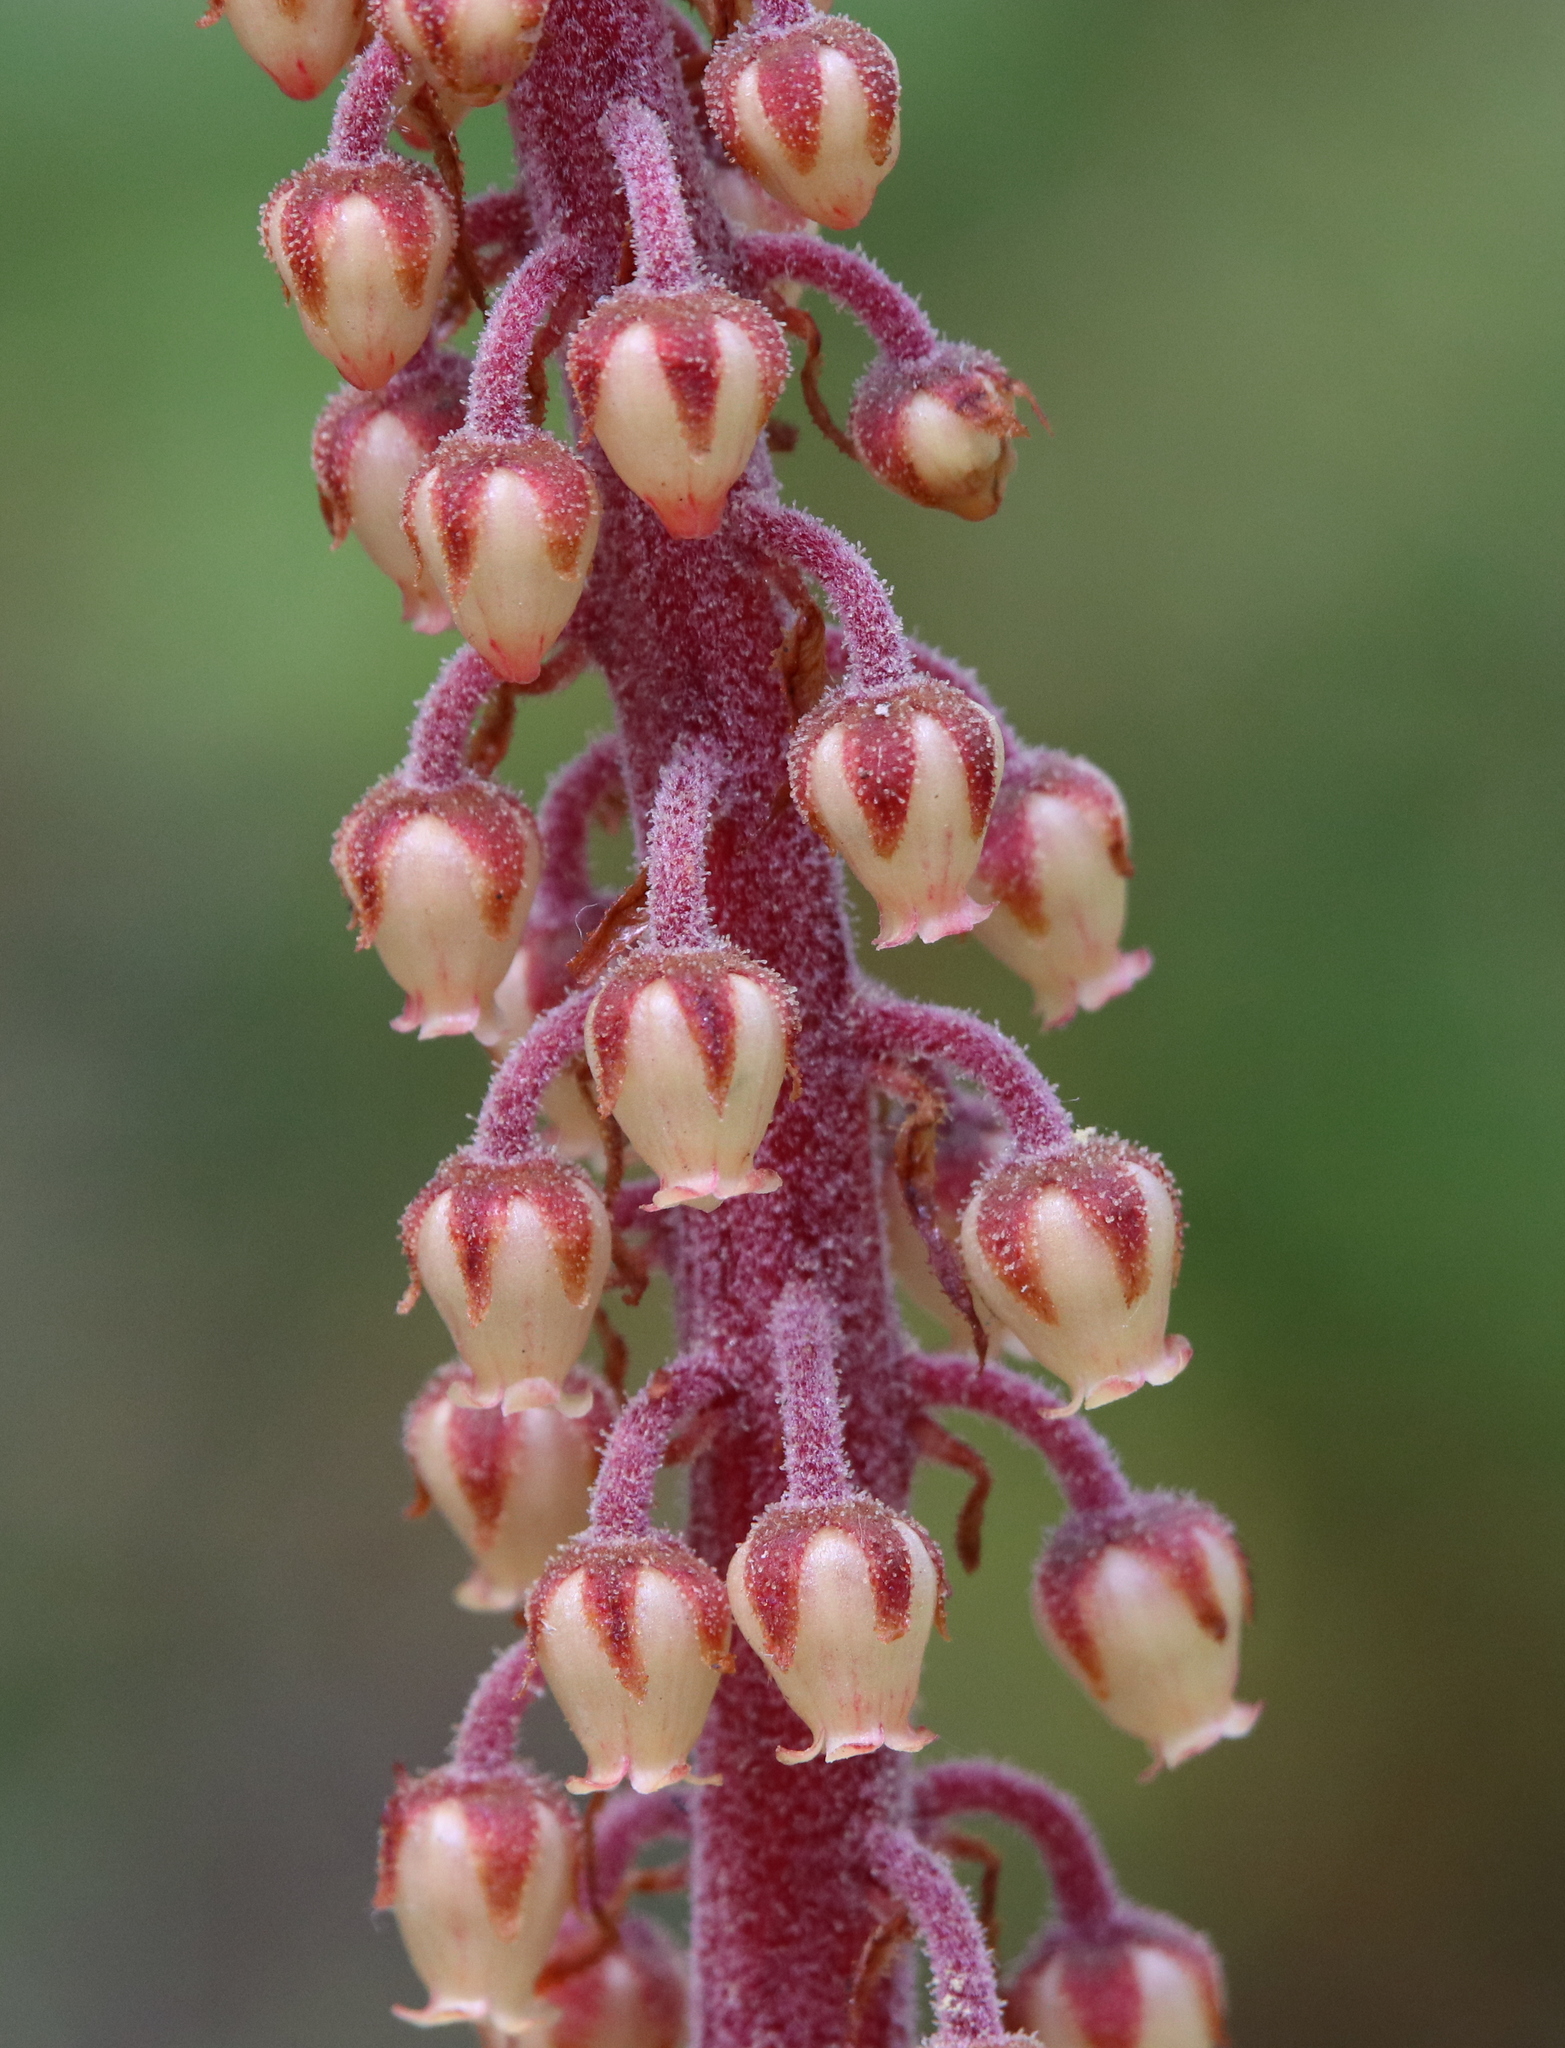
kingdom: Plantae
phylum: Tracheophyta
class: Magnoliopsida
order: Ericales
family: Ericaceae
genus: Pterospora
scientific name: Pterospora andromedea
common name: Giant bird's-nest
